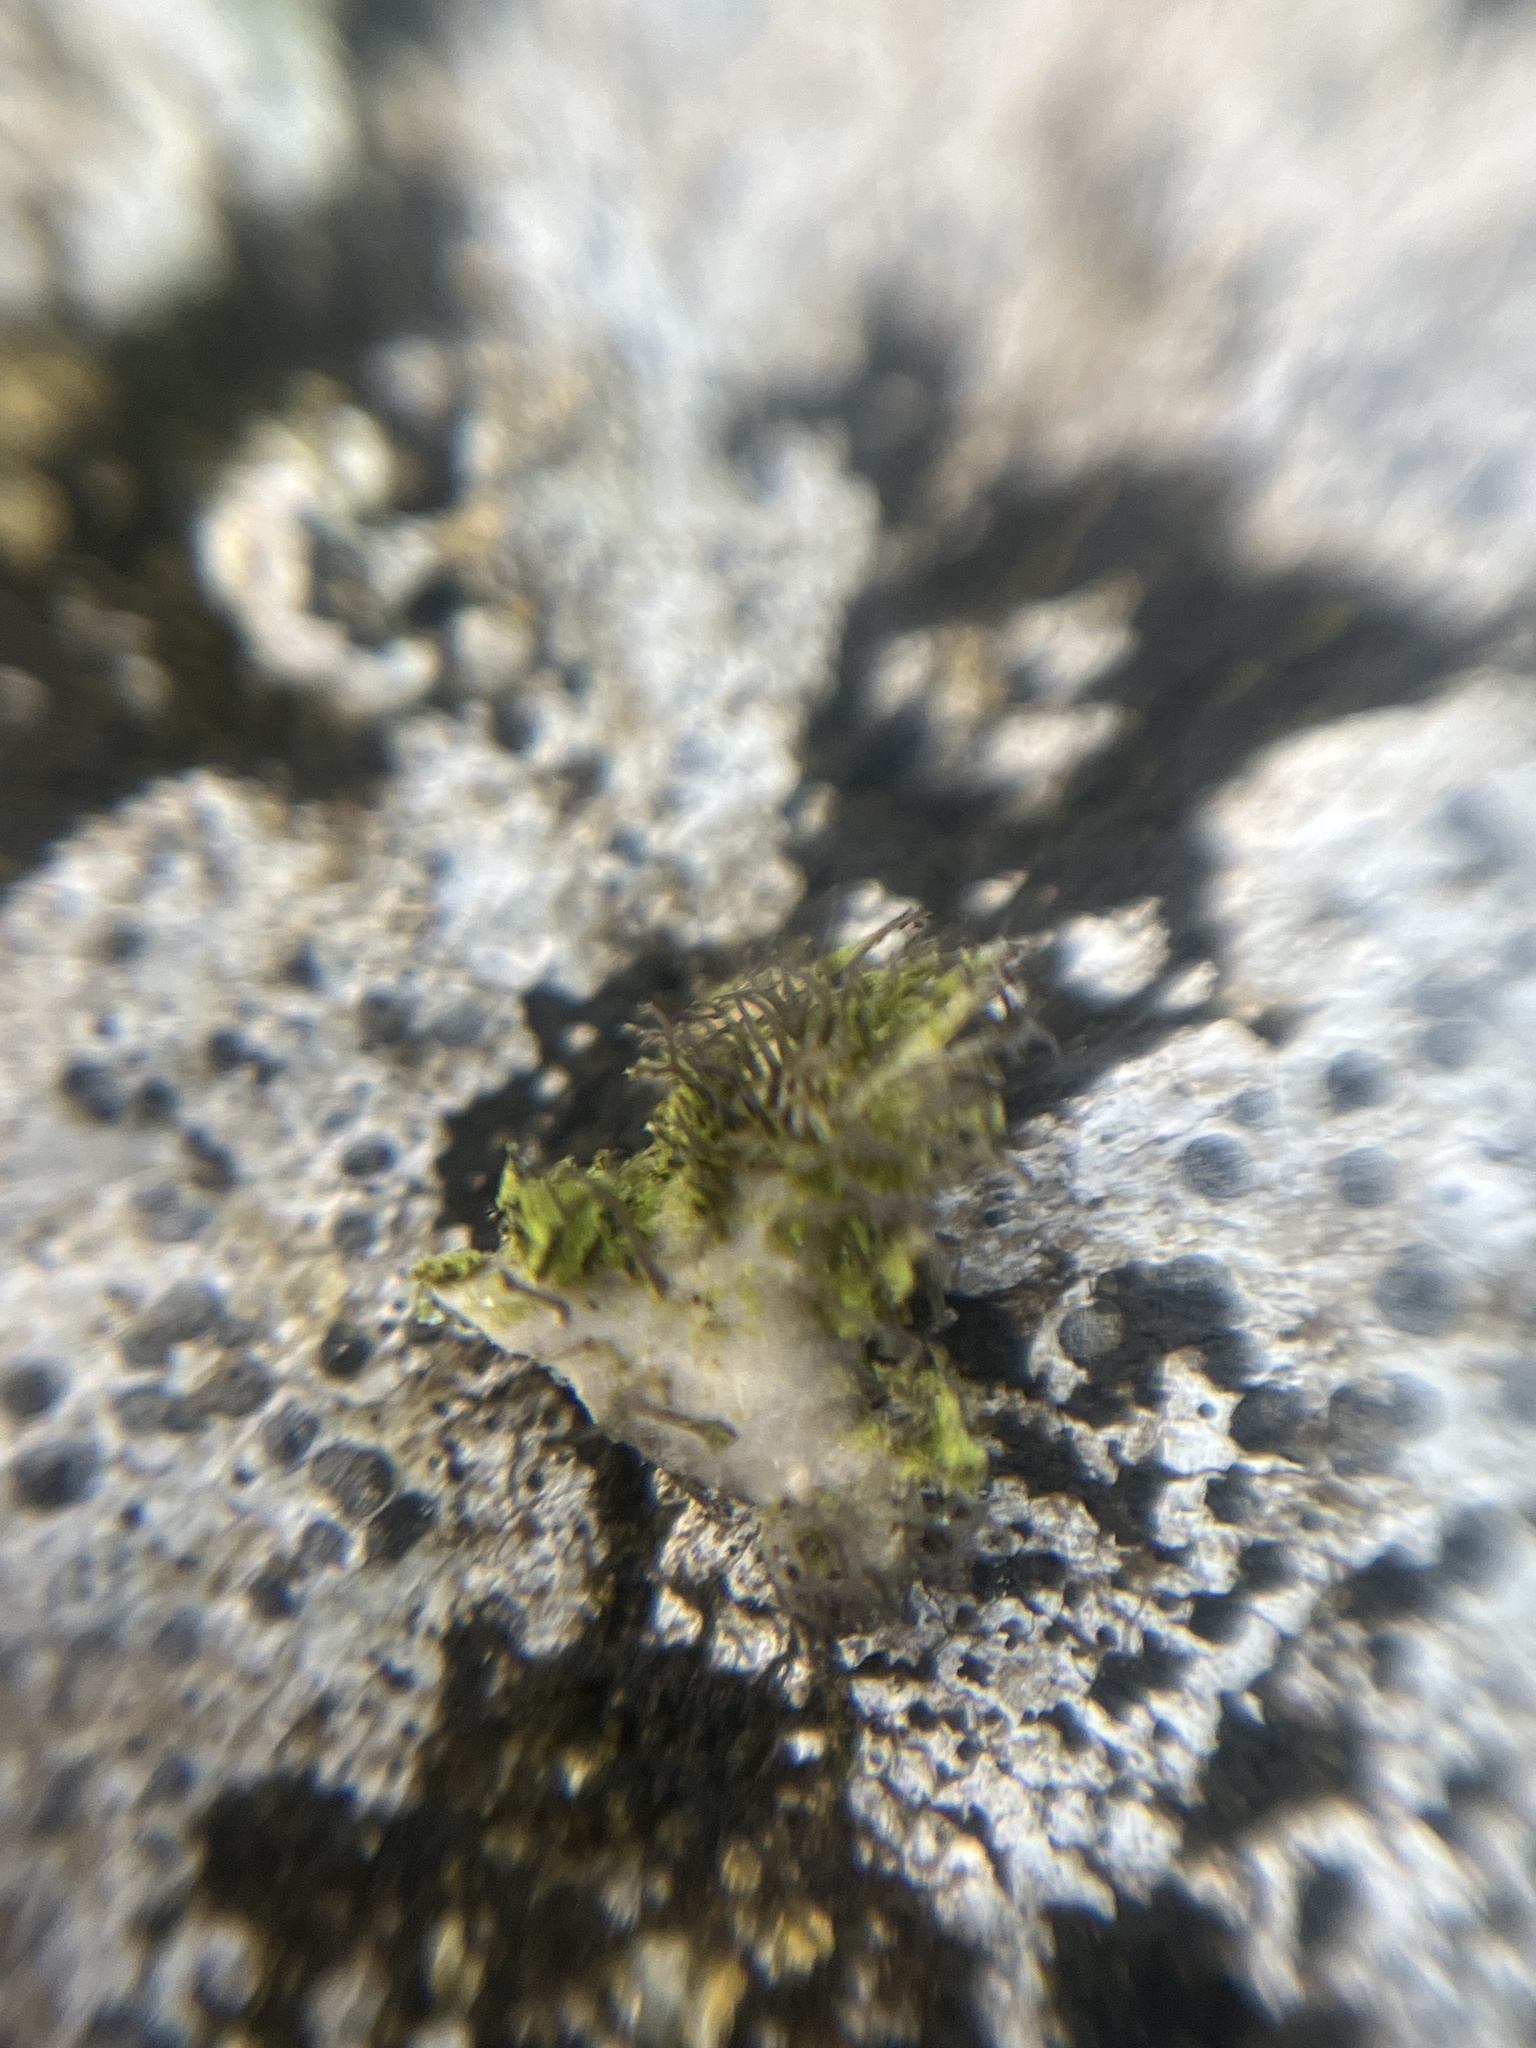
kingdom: Fungi
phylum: Ascomycota
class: Lecanoromycetes
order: Umbilicariales
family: Umbilicariaceae
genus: Umbilicaria
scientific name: Umbilicaria cylindrica
